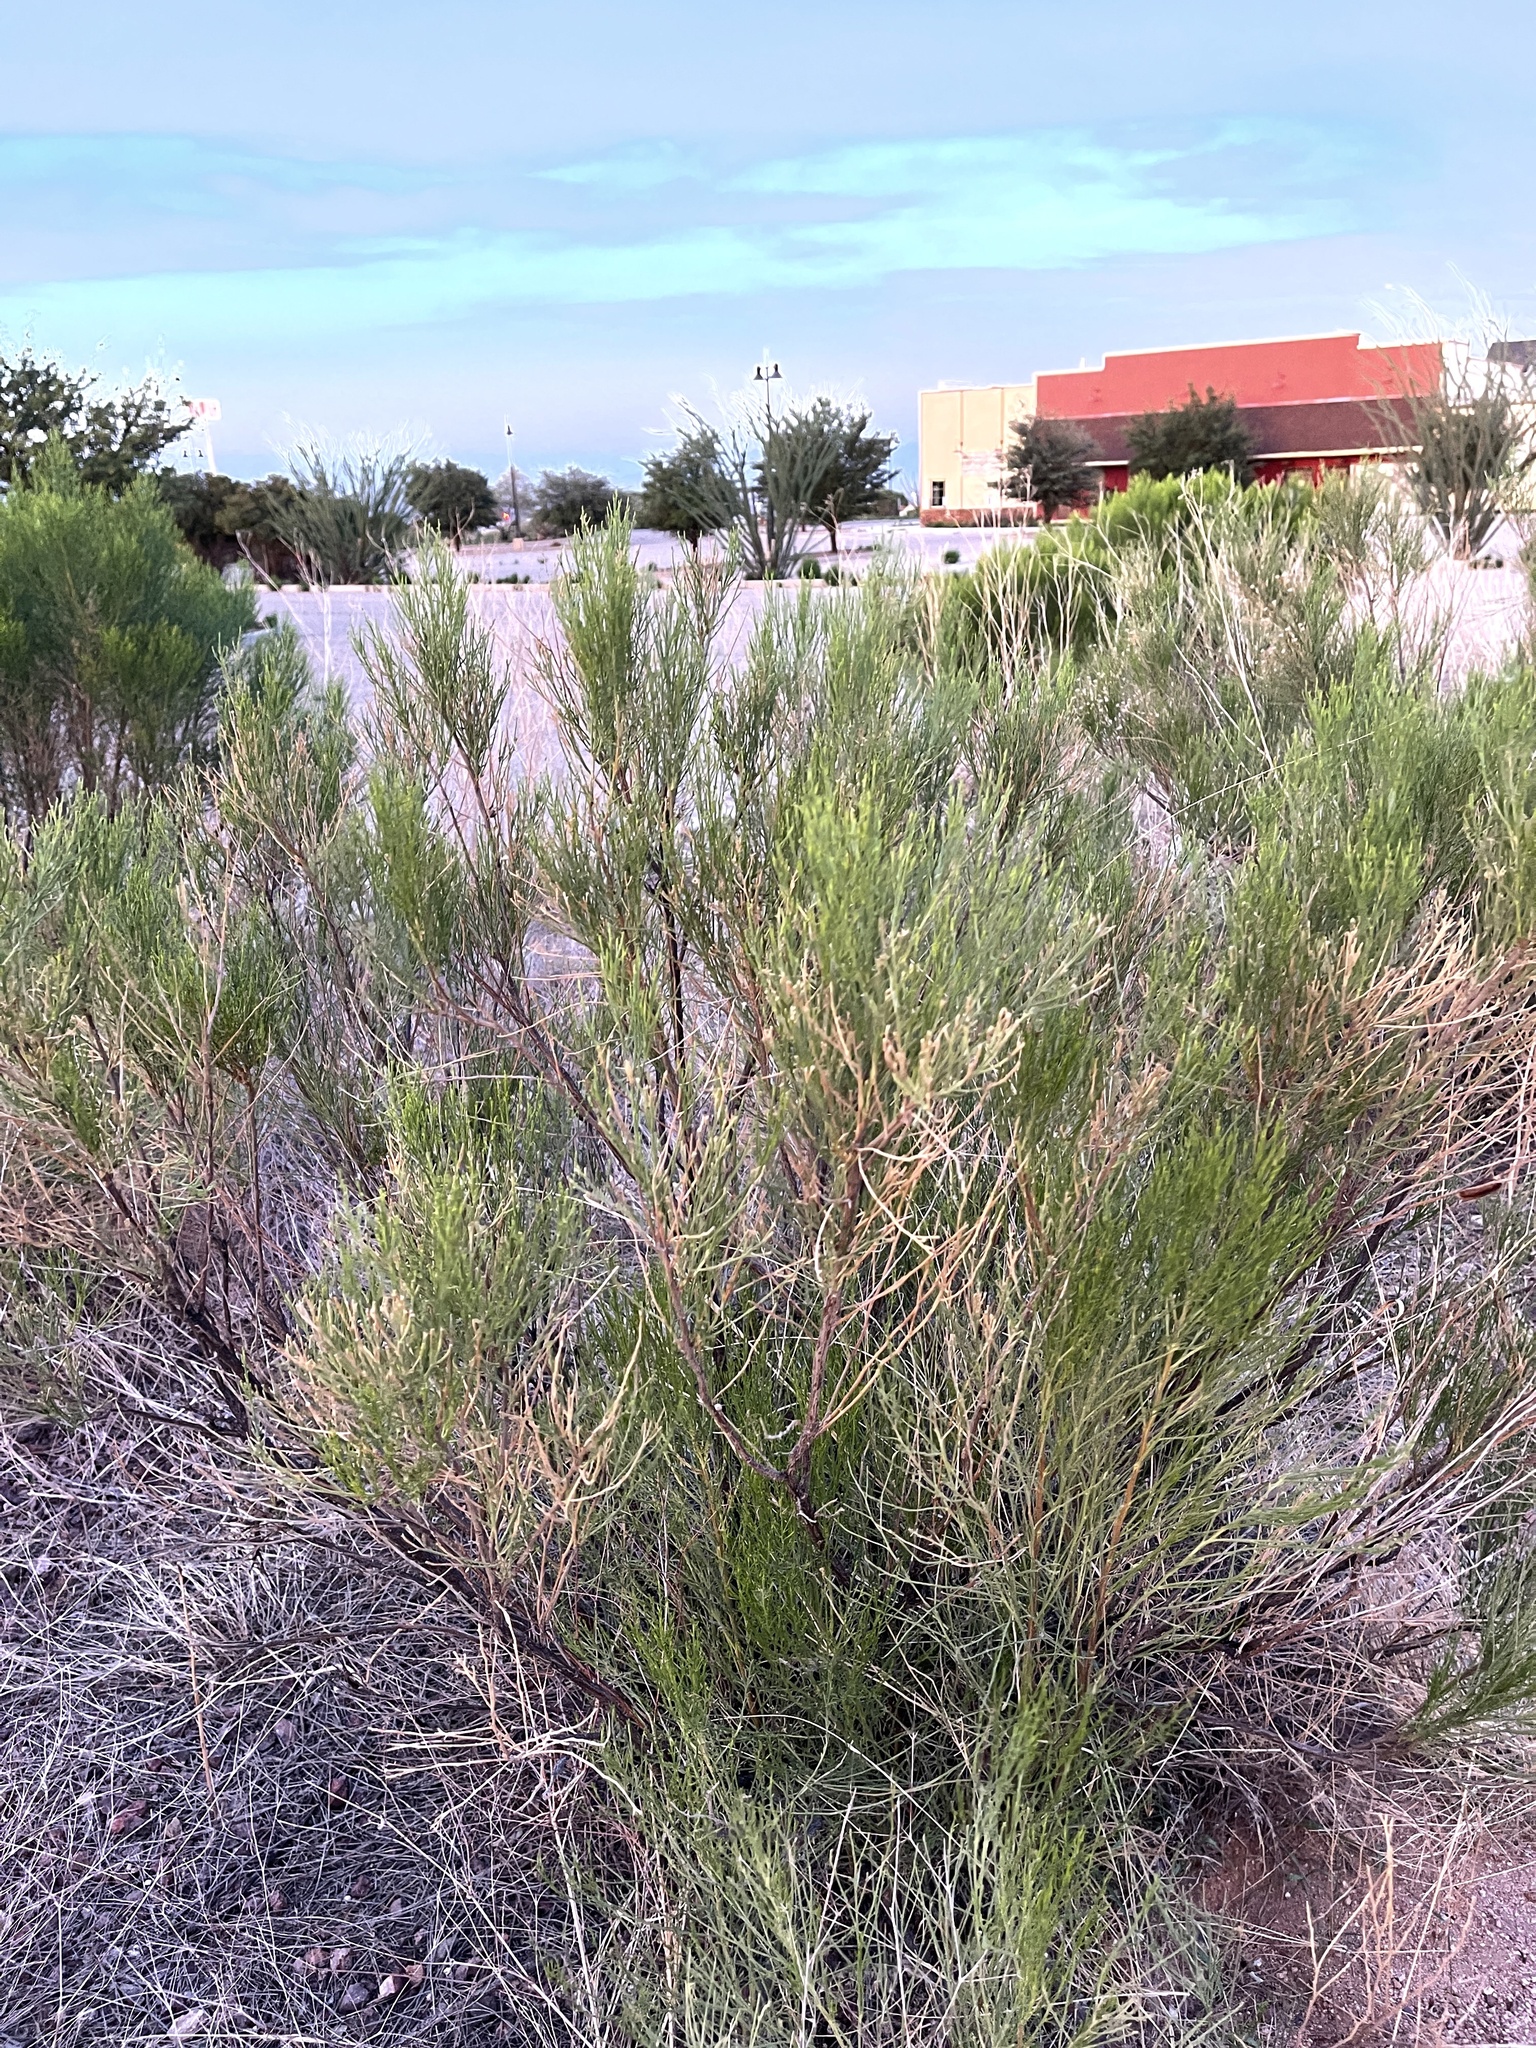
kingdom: Plantae
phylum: Tracheophyta
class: Magnoliopsida
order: Asterales
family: Asteraceae
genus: Baccharis
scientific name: Baccharis sarothroides
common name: Desert-broom
